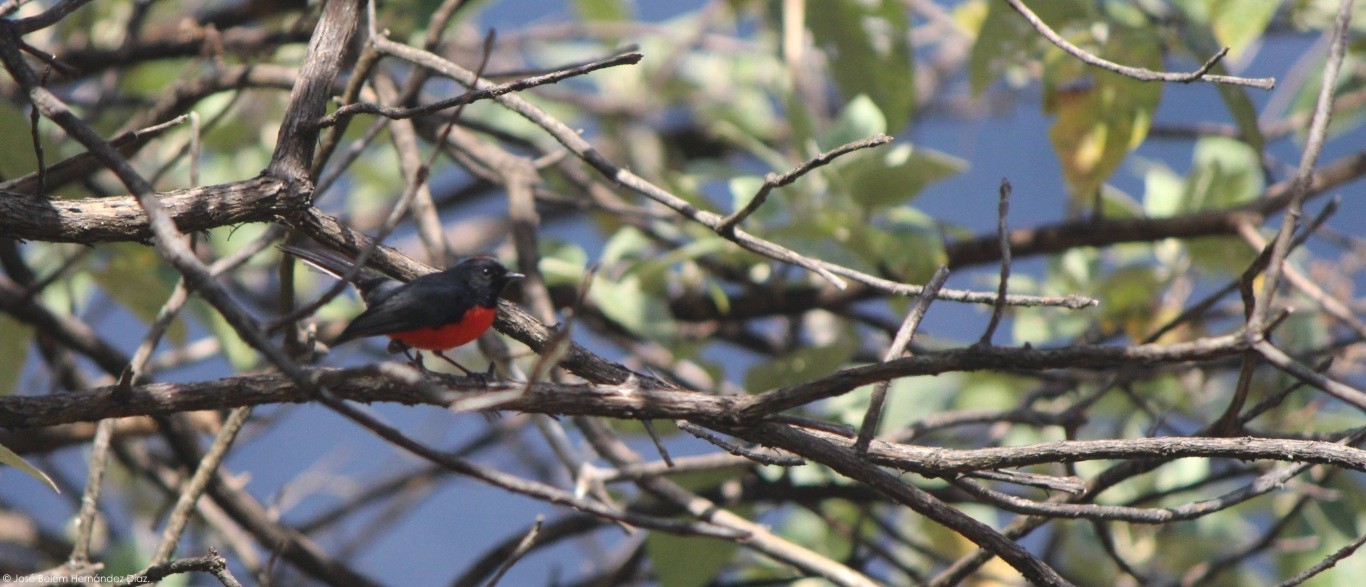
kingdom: Animalia
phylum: Chordata
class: Aves
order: Passeriformes
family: Parulidae
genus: Myioborus
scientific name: Myioborus miniatus
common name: Slate-throated redstart
